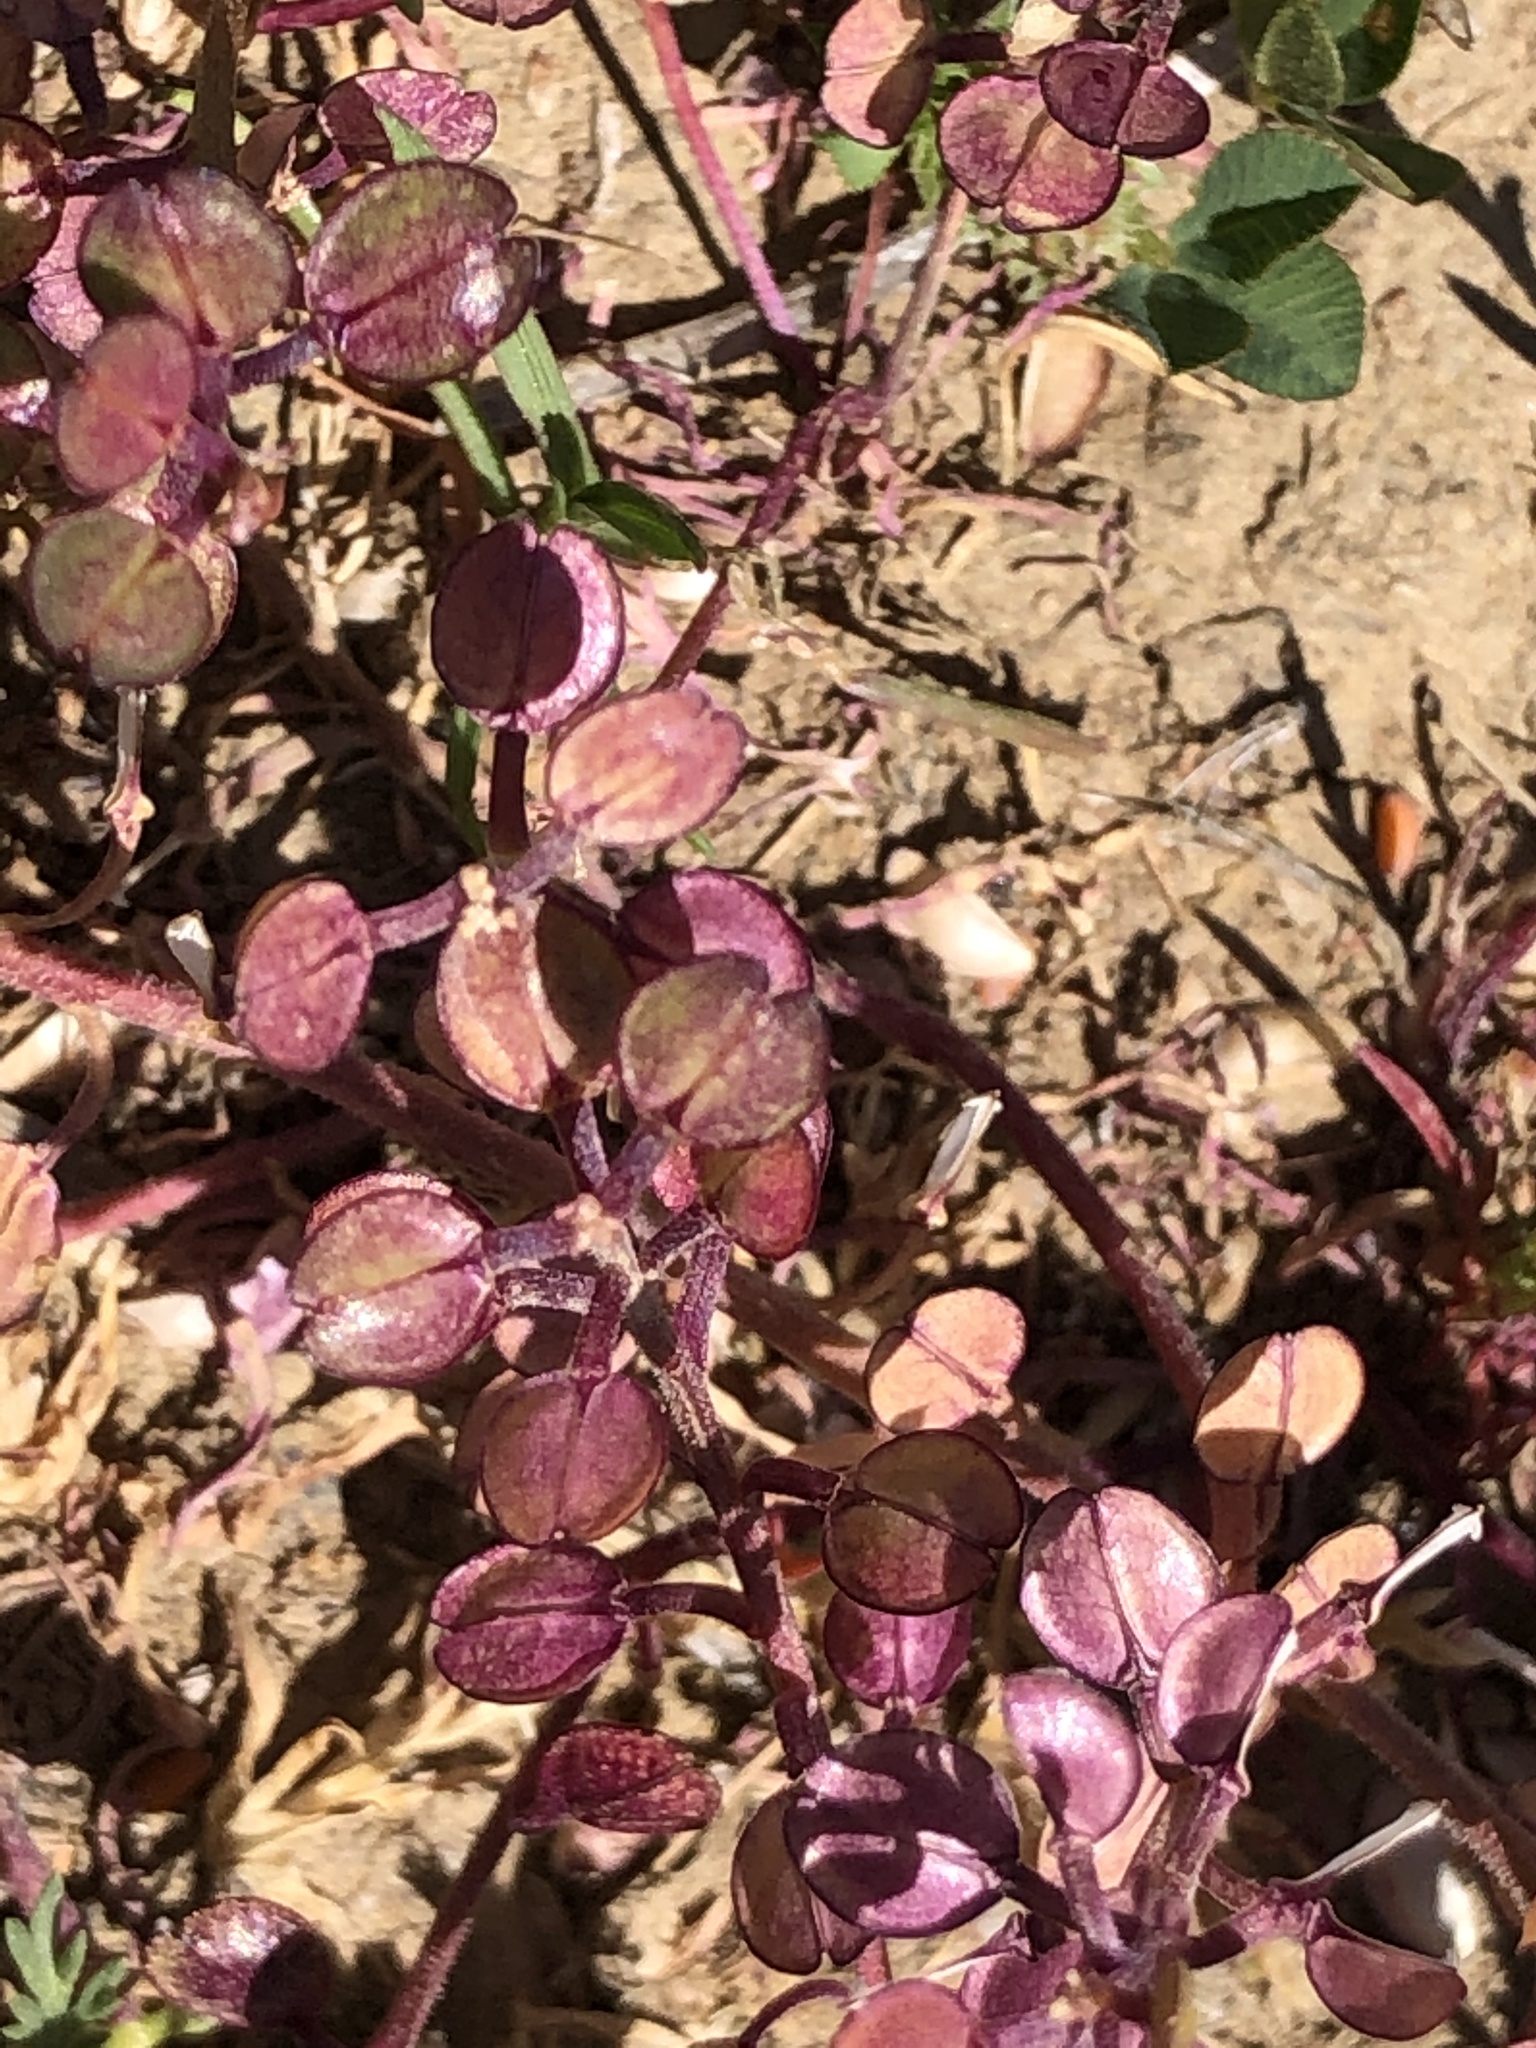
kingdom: Plantae
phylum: Tracheophyta
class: Magnoliopsida
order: Brassicales
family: Brassicaceae
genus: Lepidium
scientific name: Lepidium nitidum
